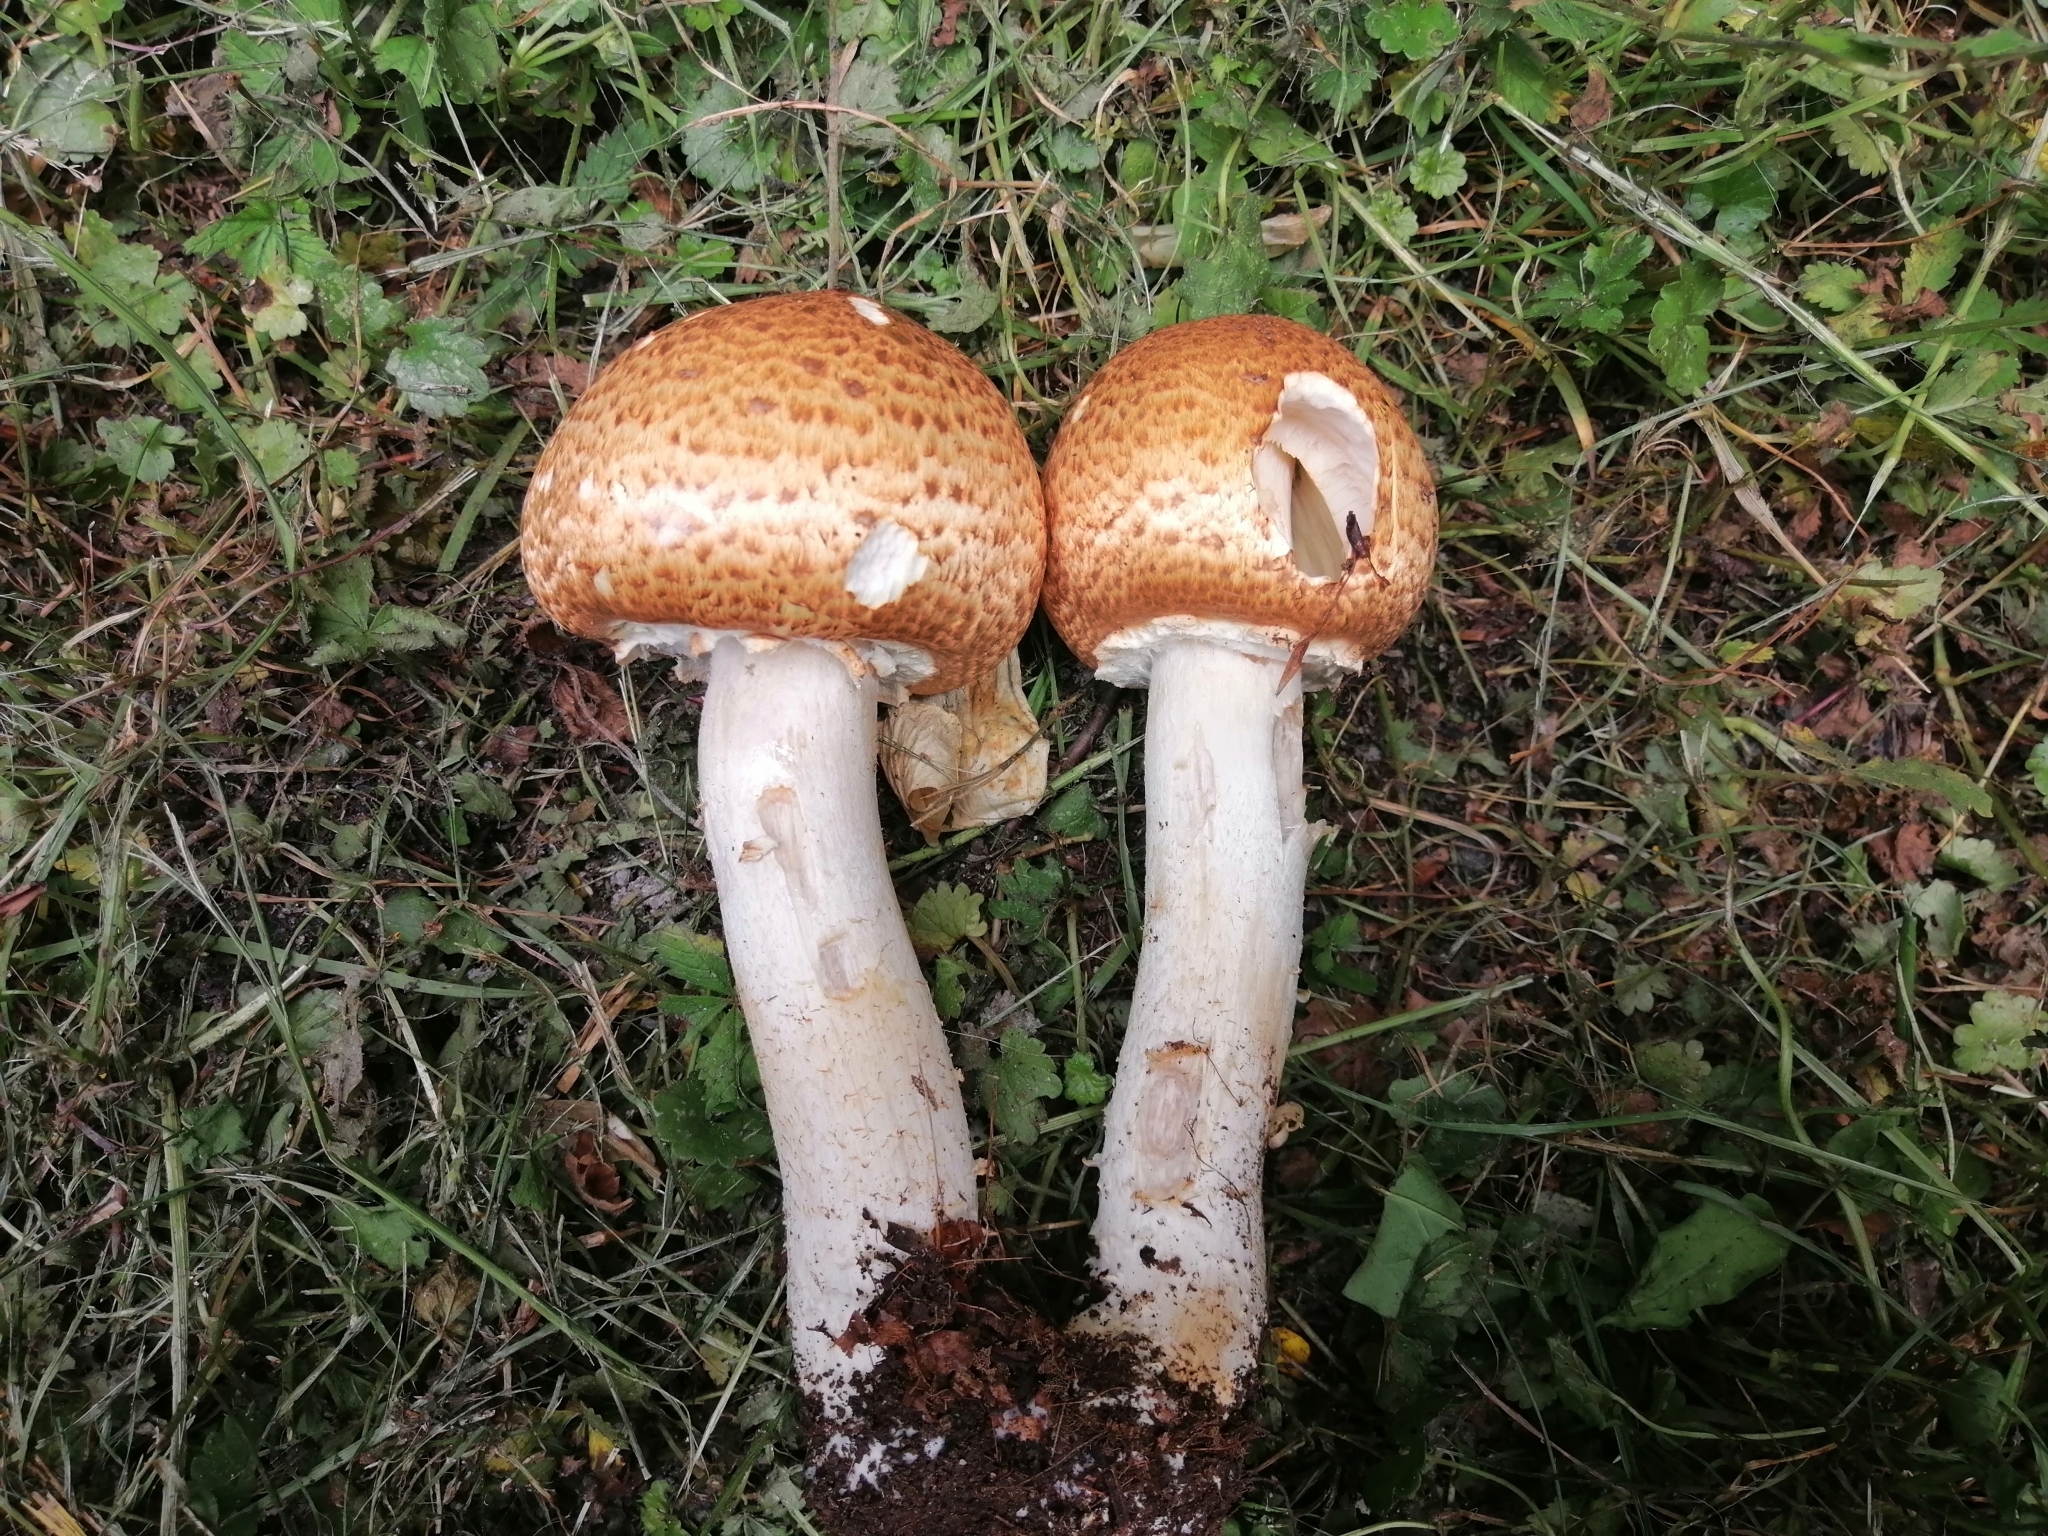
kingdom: Fungi
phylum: Basidiomycota
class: Agaricomycetes
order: Agaricales
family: Agaricaceae
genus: Agaricus
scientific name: Agaricus augustus
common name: Prince
